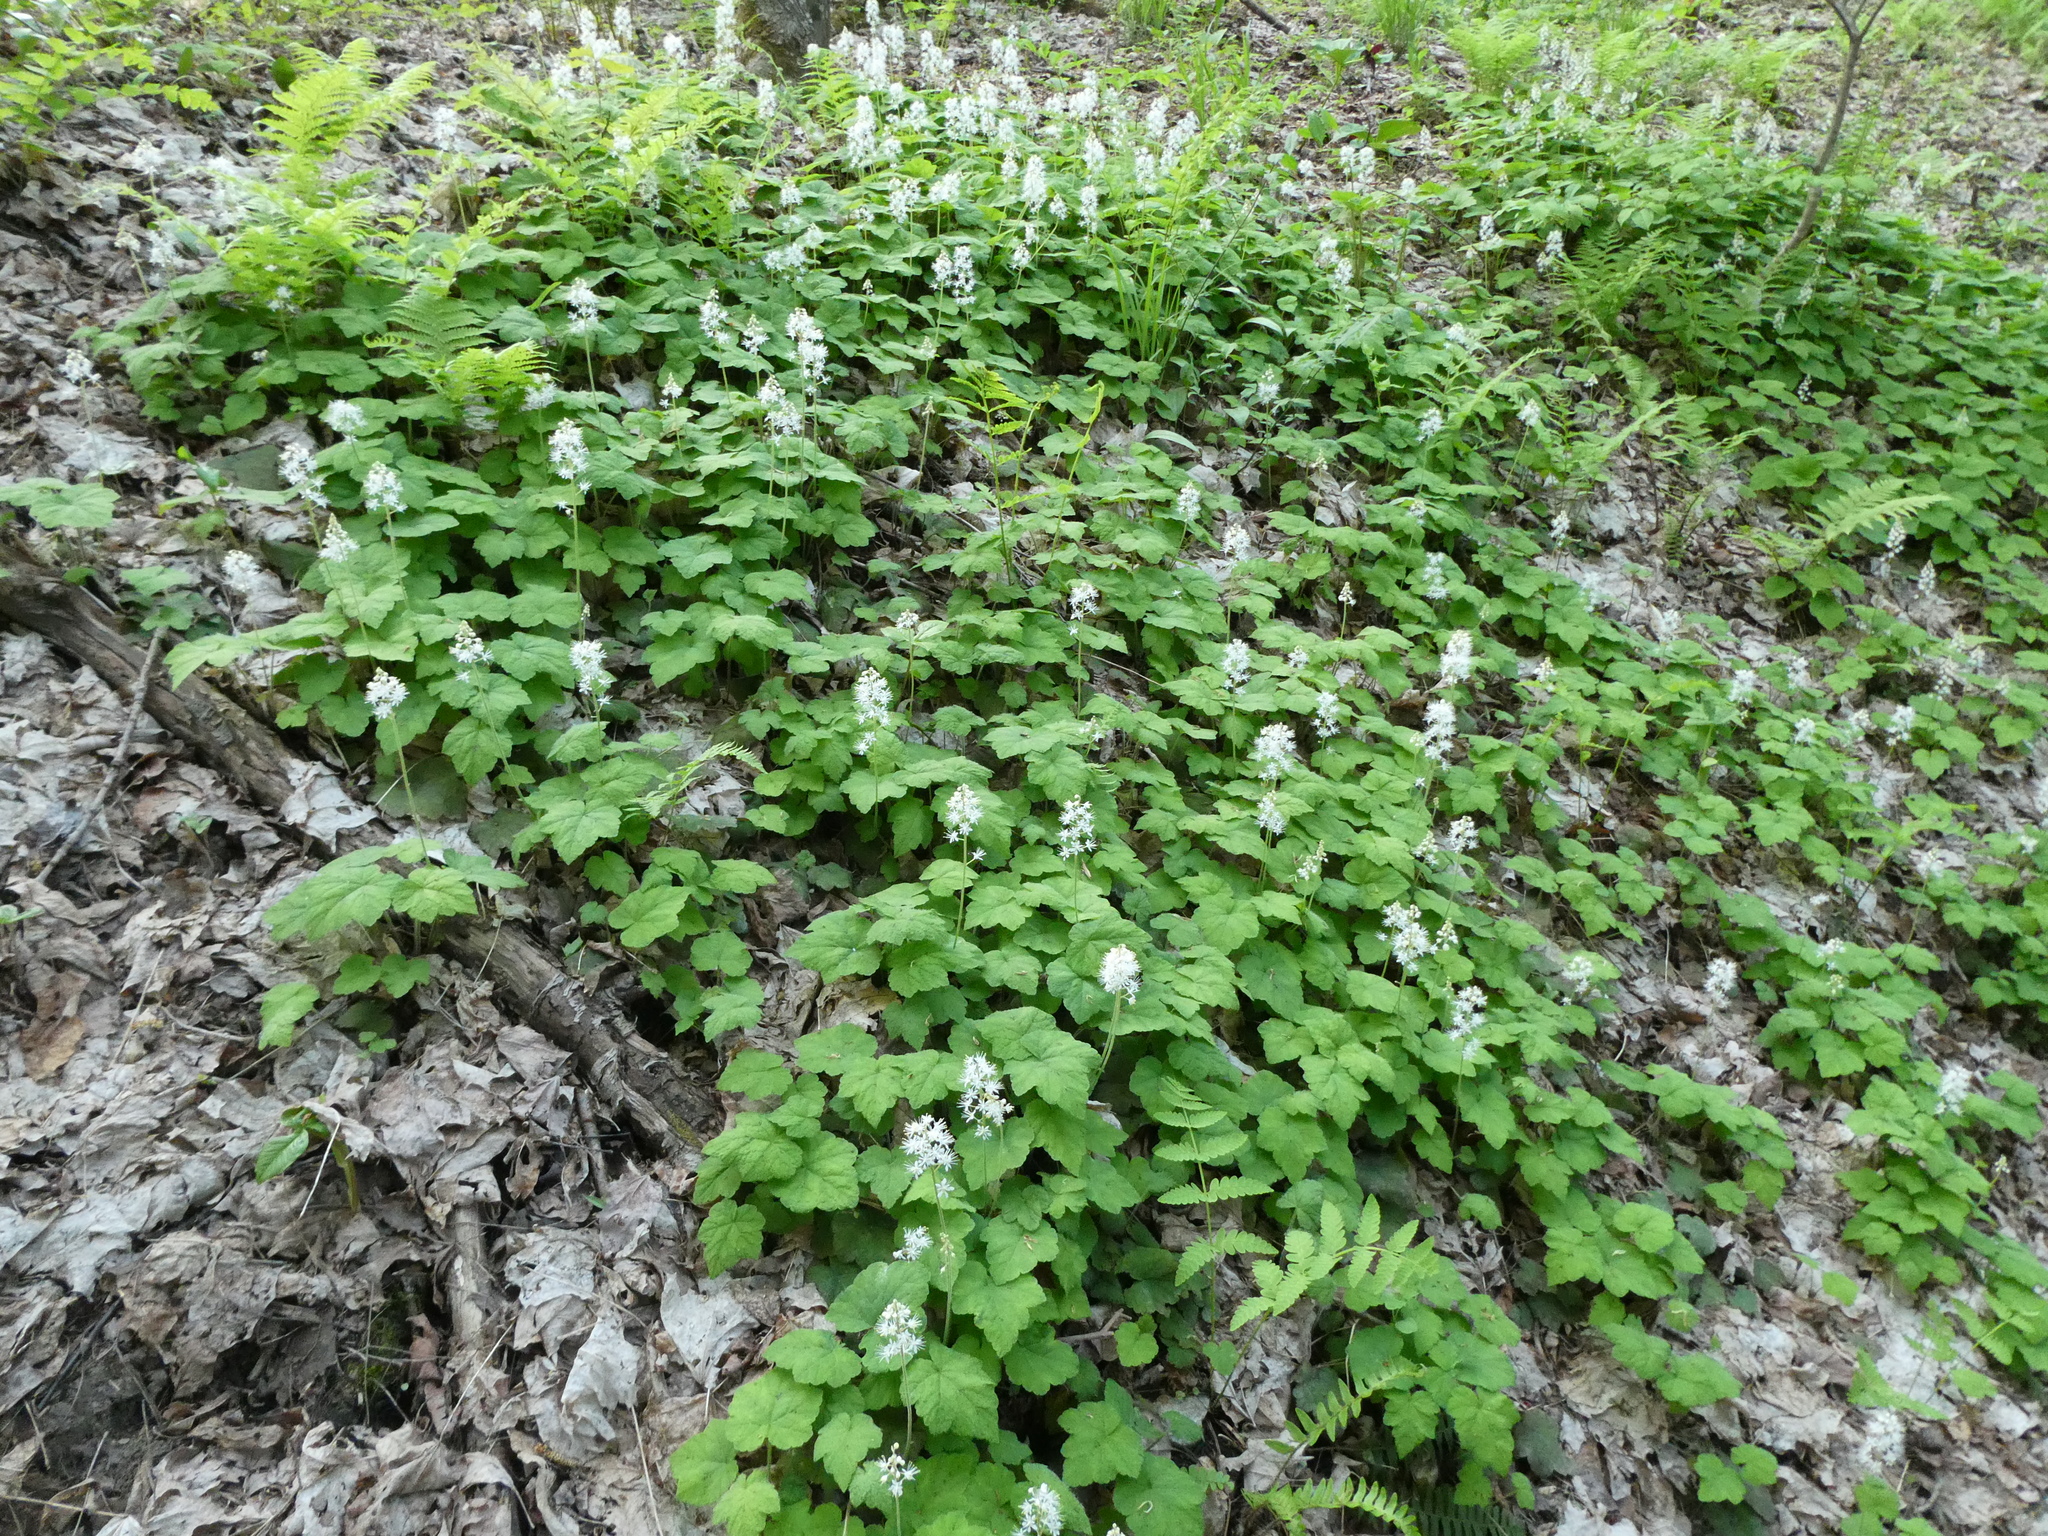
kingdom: Plantae
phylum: Tracheophyta
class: Magnoliopsida
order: Saxifragales
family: Saxifragaceae
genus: Tiarella
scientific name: Tiarella stolonifera
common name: Stoloniferous foamflower
